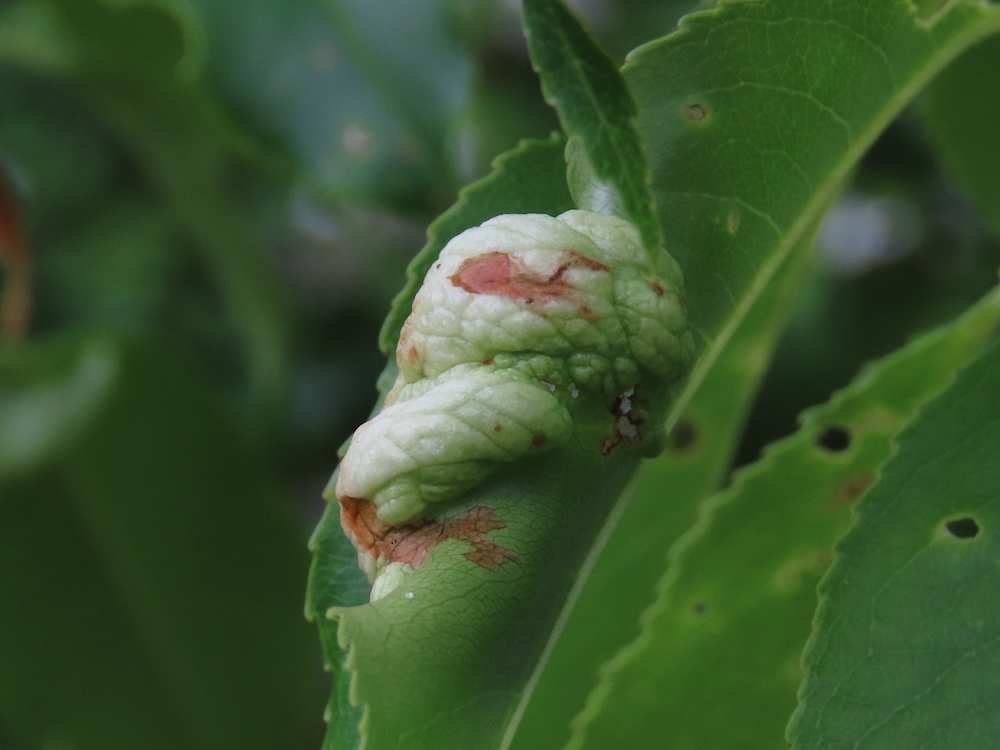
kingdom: Fungi
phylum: Ascomycota
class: Taphrinomycetes
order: Taphrinales
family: Taphrinaceae
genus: Taphrina
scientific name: Taphrina farlowii
